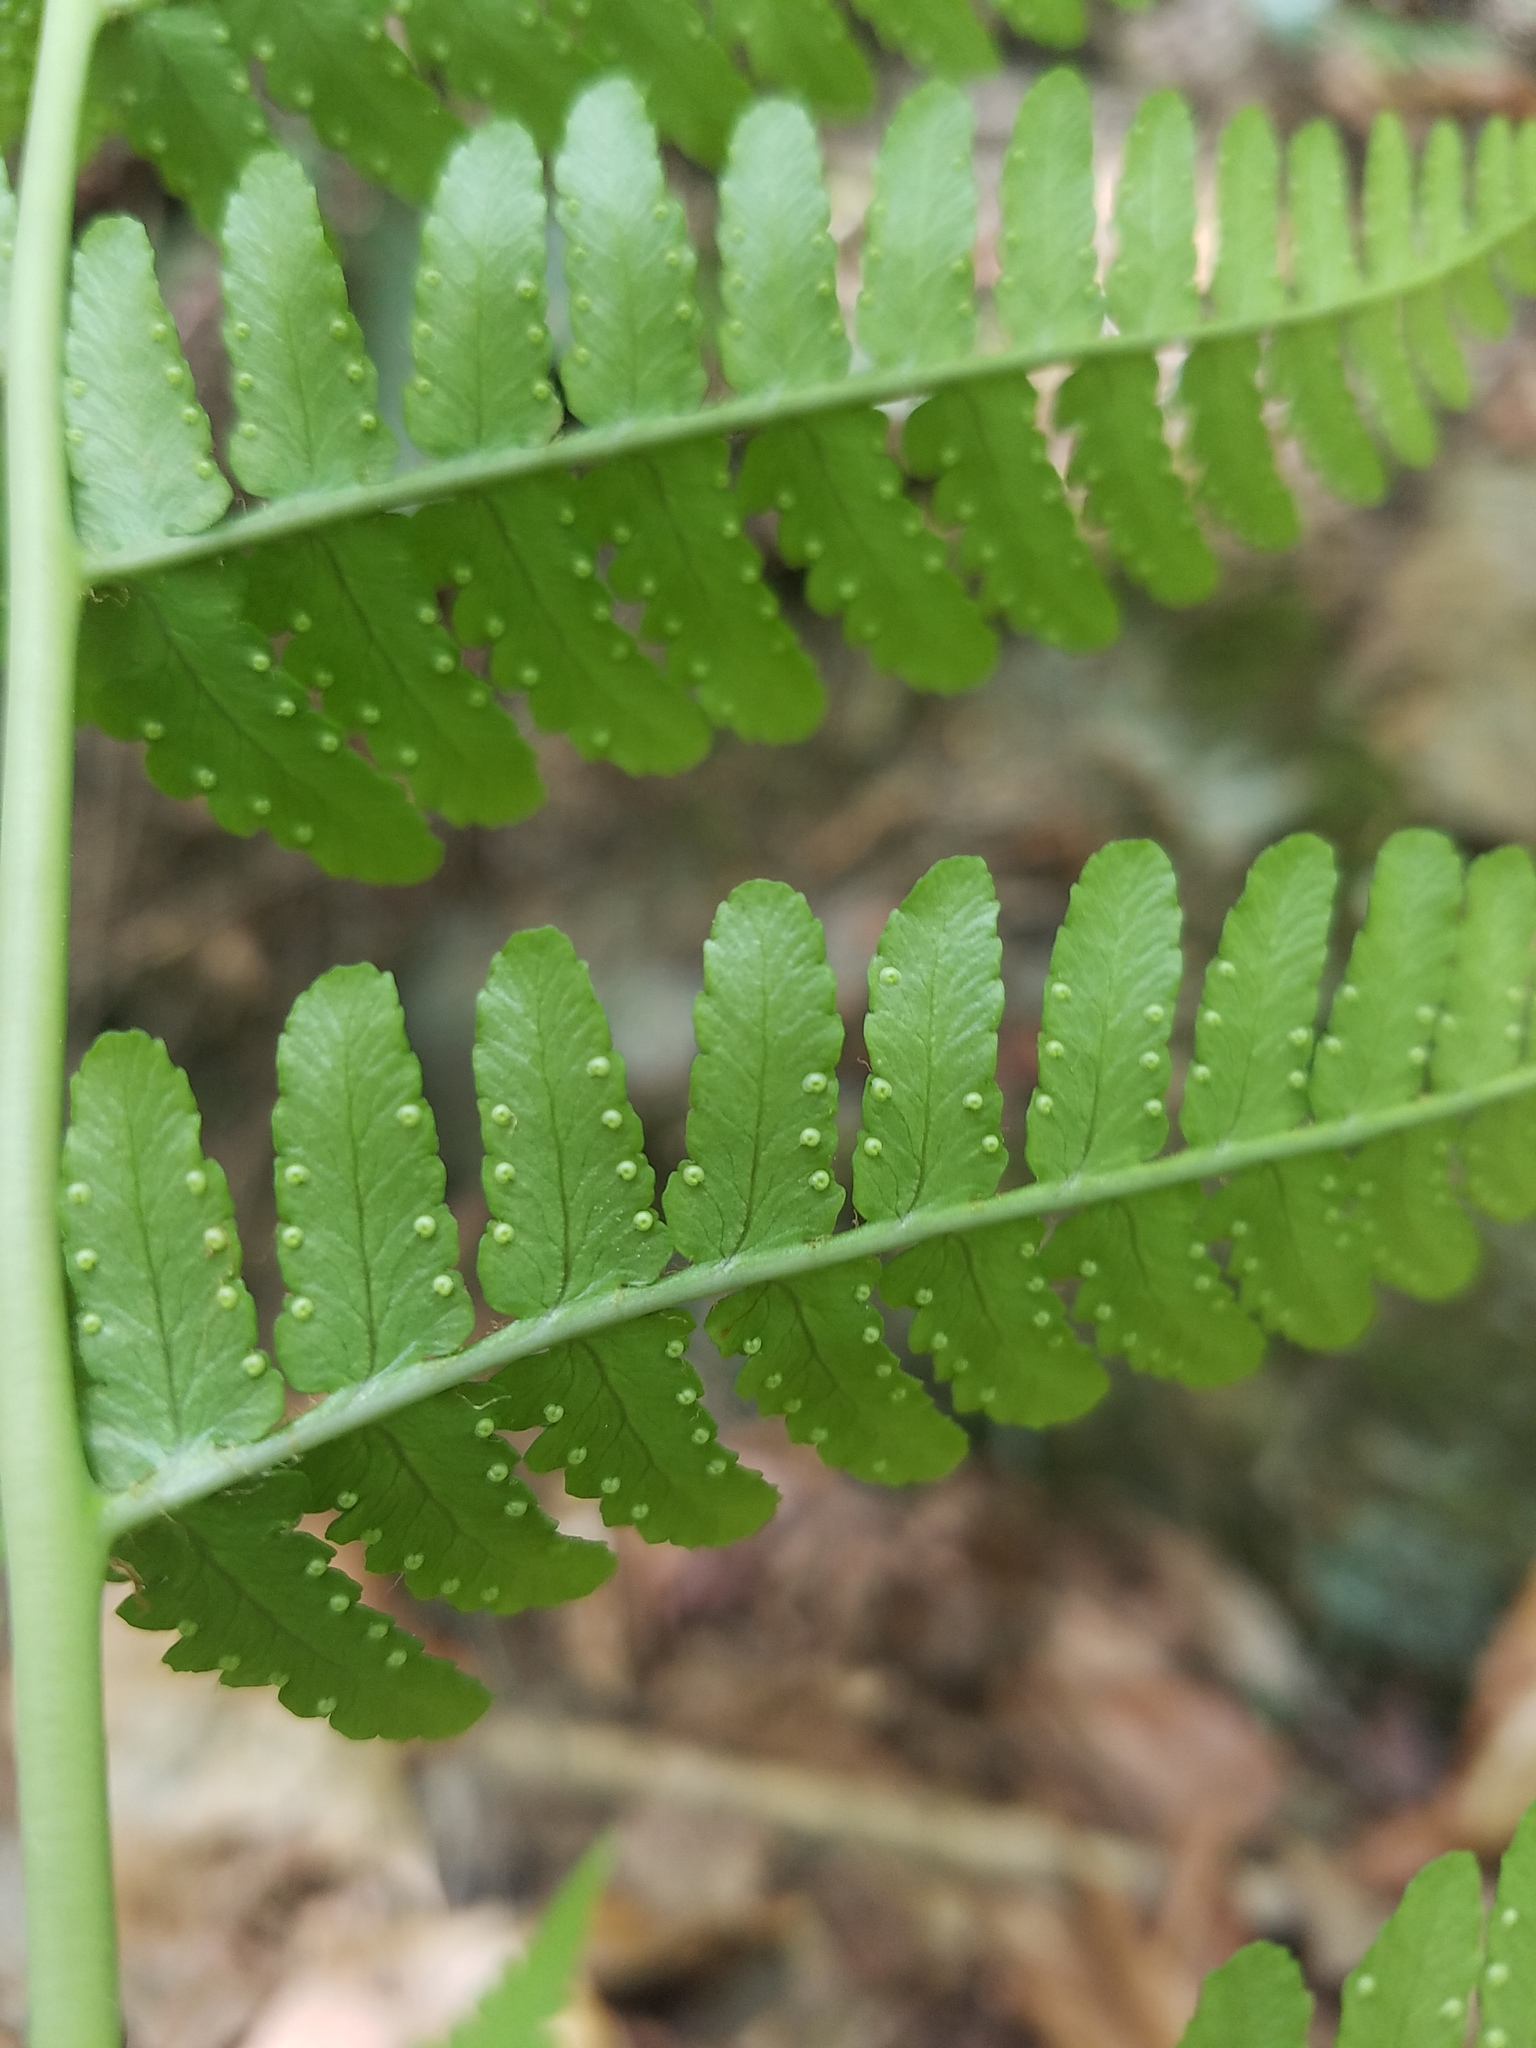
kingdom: Plantae
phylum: Tracheophyta
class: Polypodiopsida
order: Polypodiales
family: Dryopteridaceae
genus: Dryopteris
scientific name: Dryopteris marginalis
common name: Marginal wood fern
